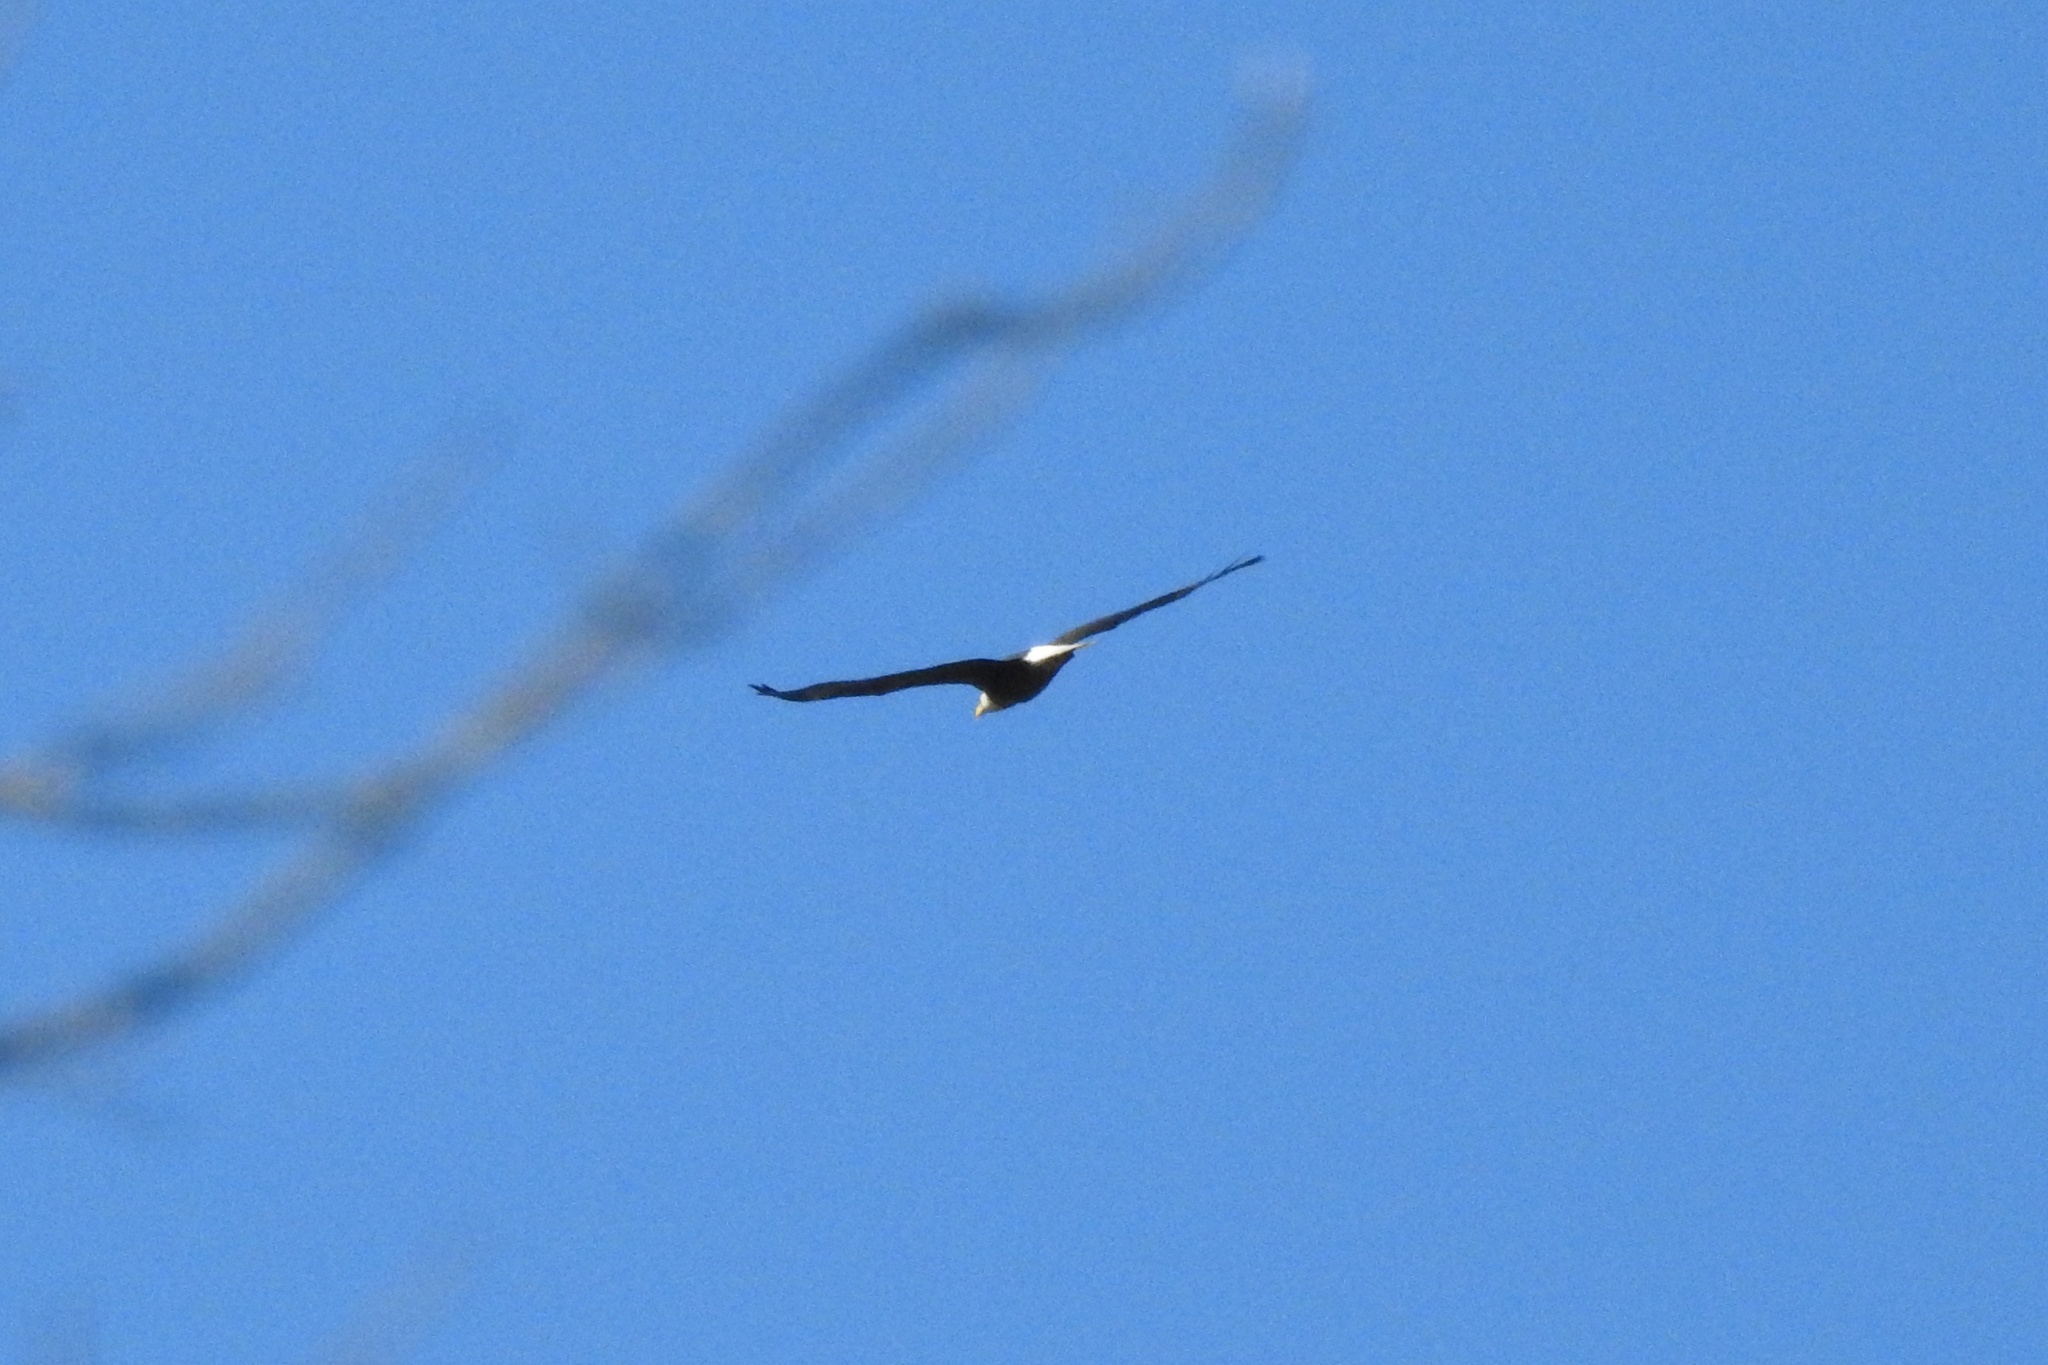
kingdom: Animalia
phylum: Chordata
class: Aves
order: Accipitriformes
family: Accipitridae
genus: Haliaeetus
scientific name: Haliaeetus leucocephalus
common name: Bald eagle
